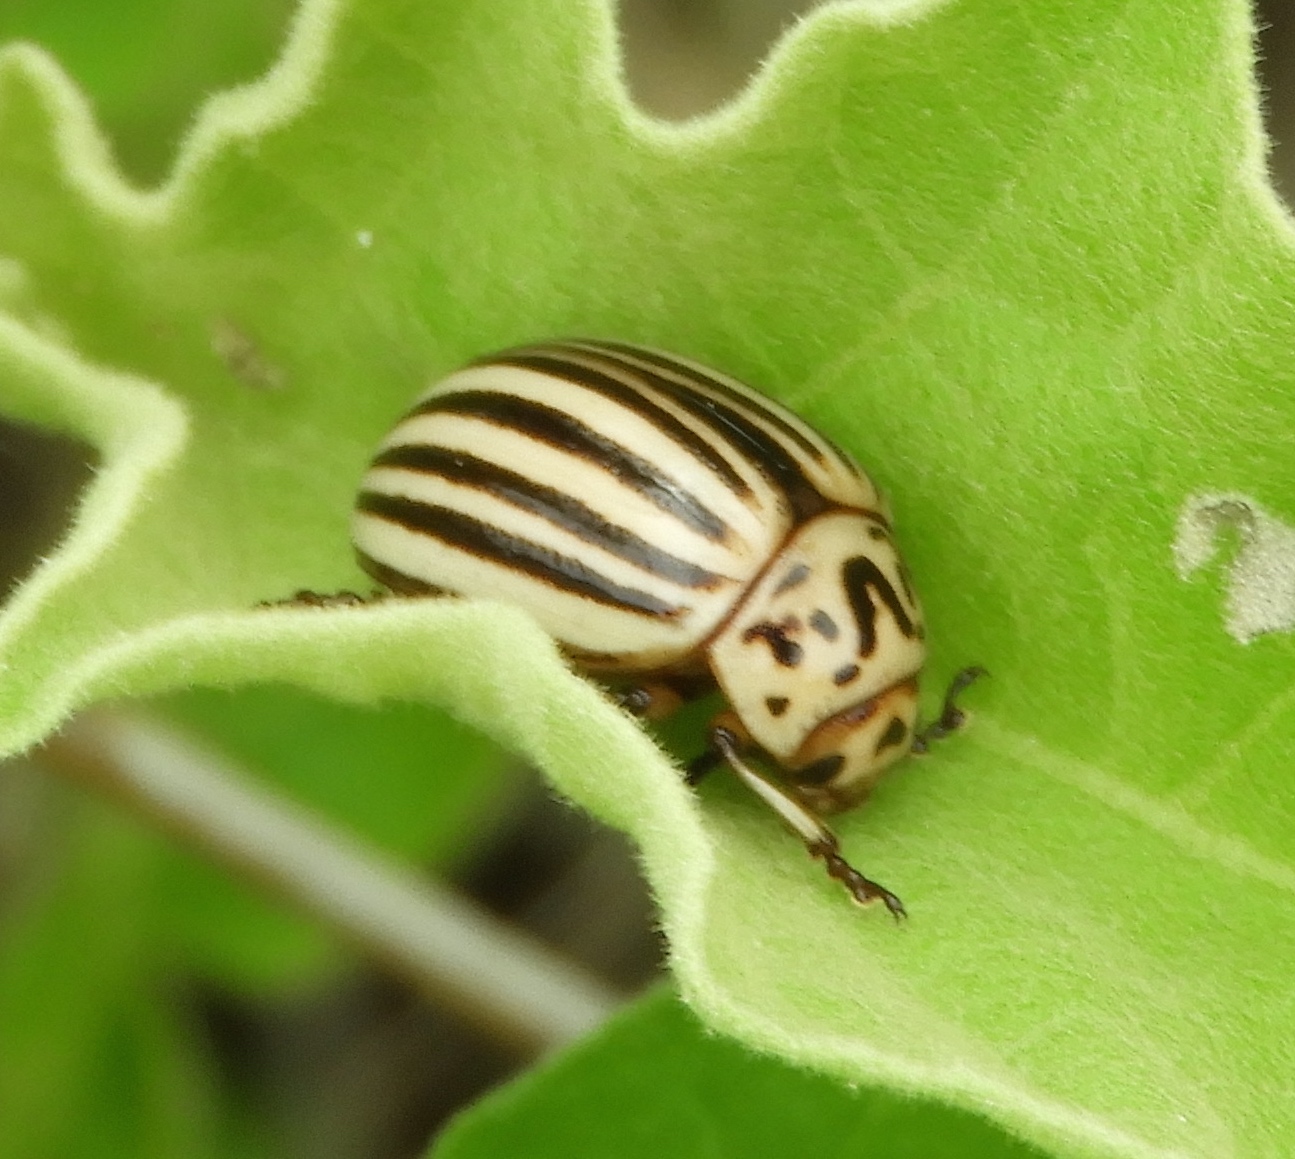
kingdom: Animalia
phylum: Arthropoda
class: Insecta
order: Coleoptera
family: Chrysomelidae
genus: Leptinotarsa
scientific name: Leptinotarsa decemlineata
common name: Colorado potato beetle
